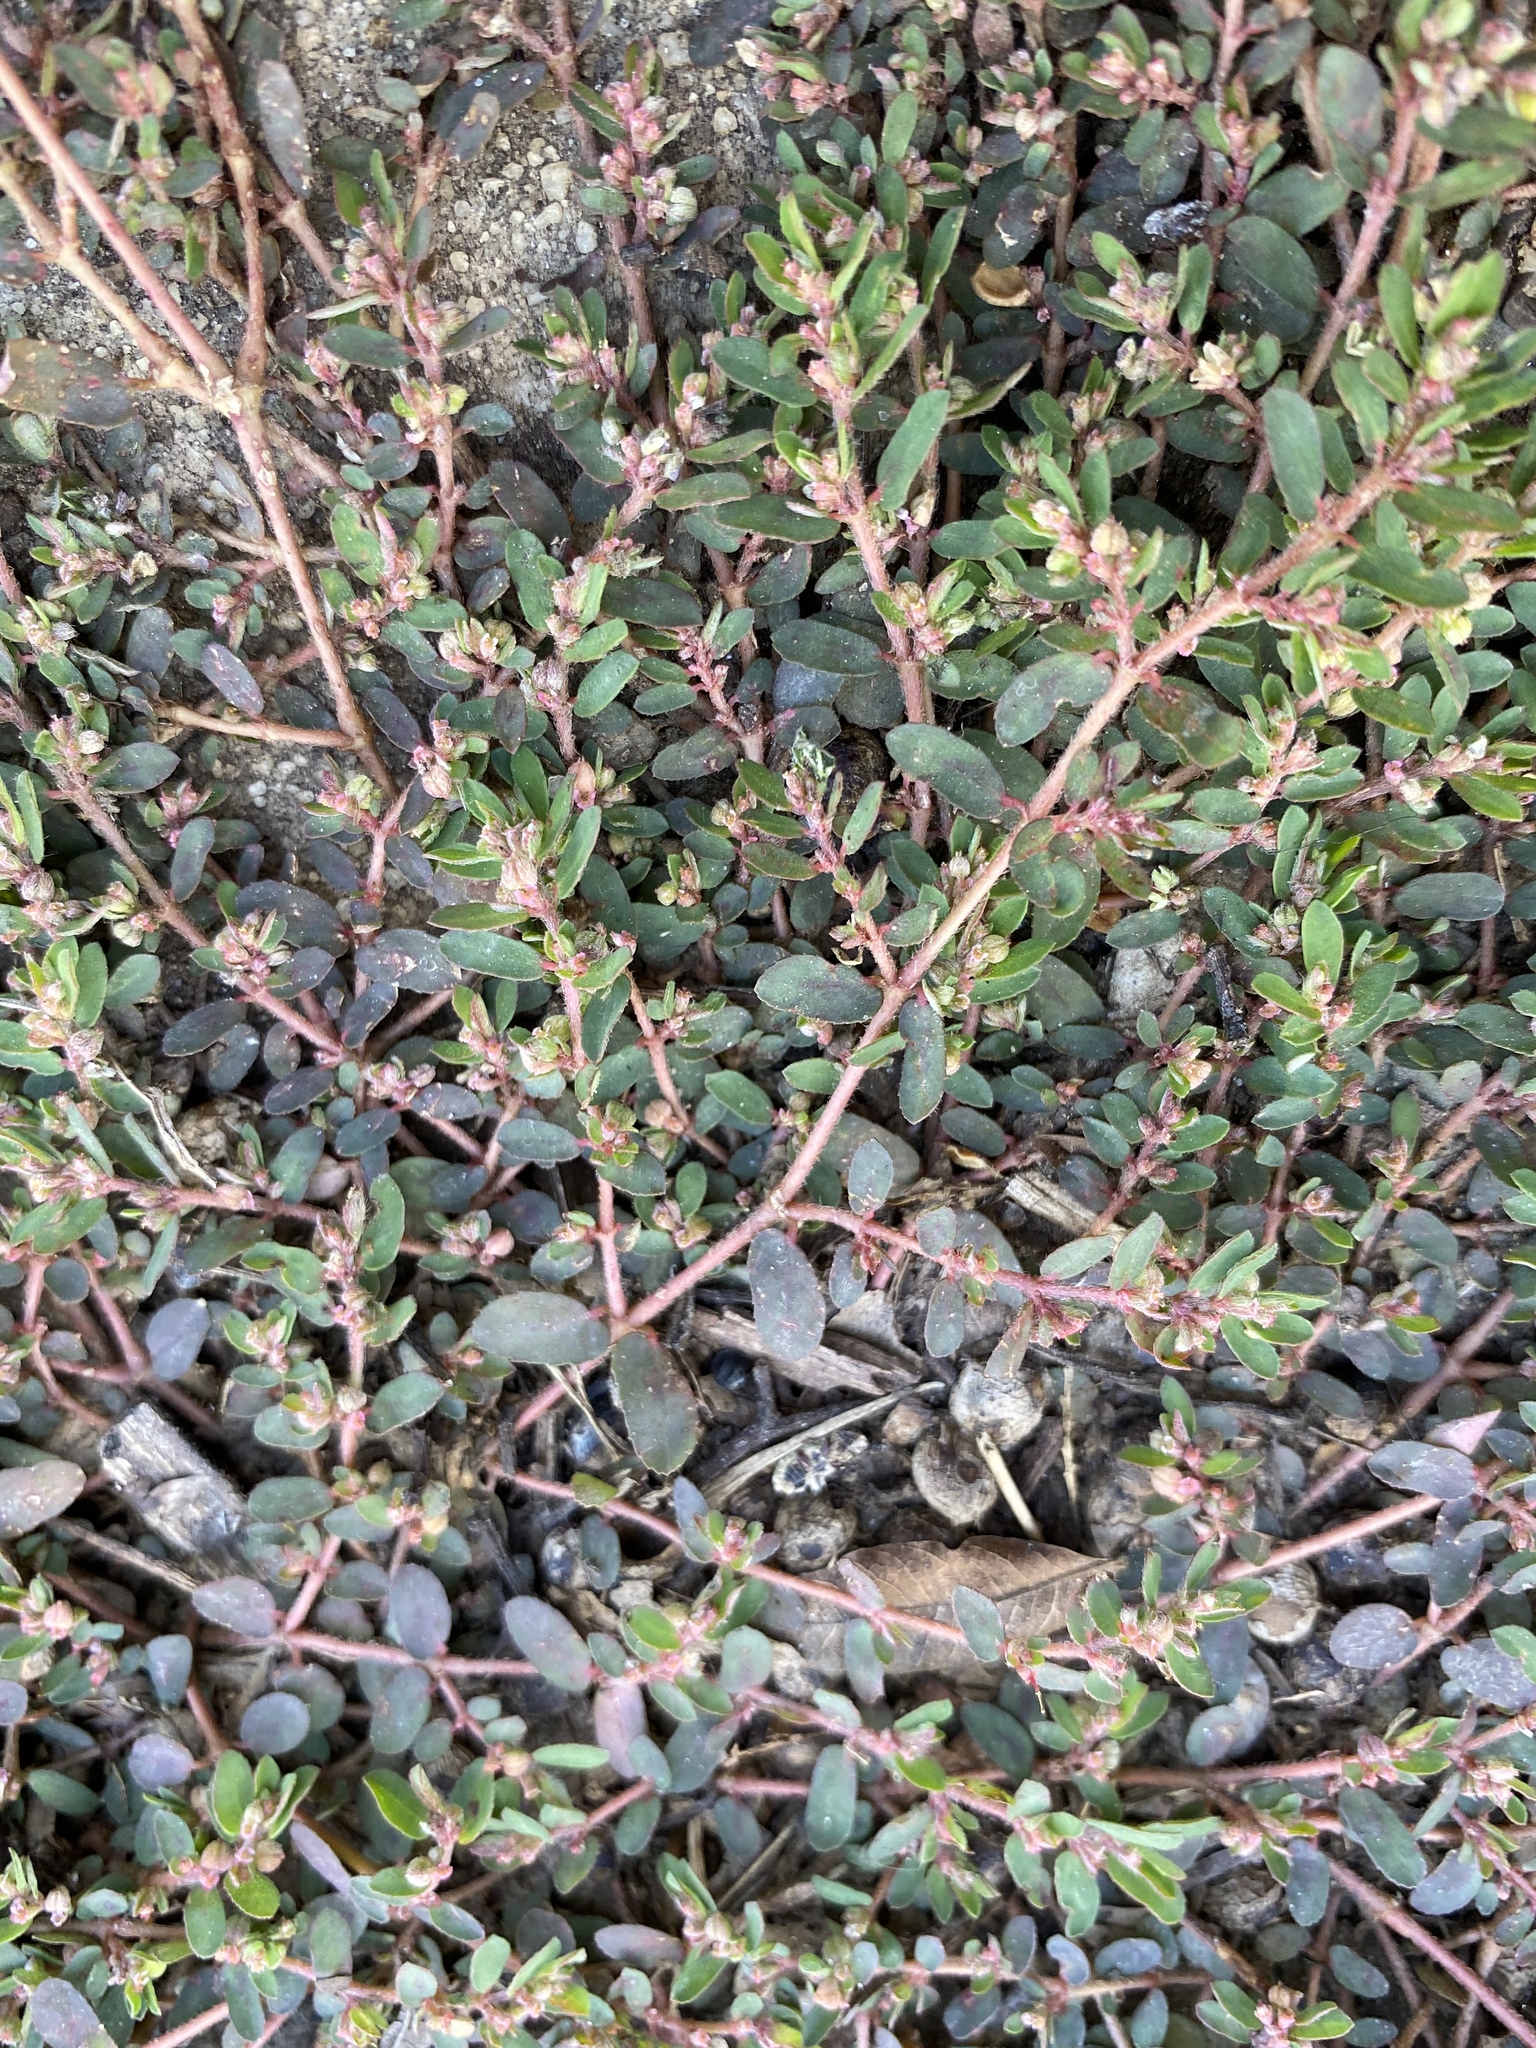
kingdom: Plantae
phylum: Tracheophyta
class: Magnoliopsida
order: Malpighiales
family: Euphorbiaceae
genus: Euphorbia
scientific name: Euphorbia maculata
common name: Spotted spurge
